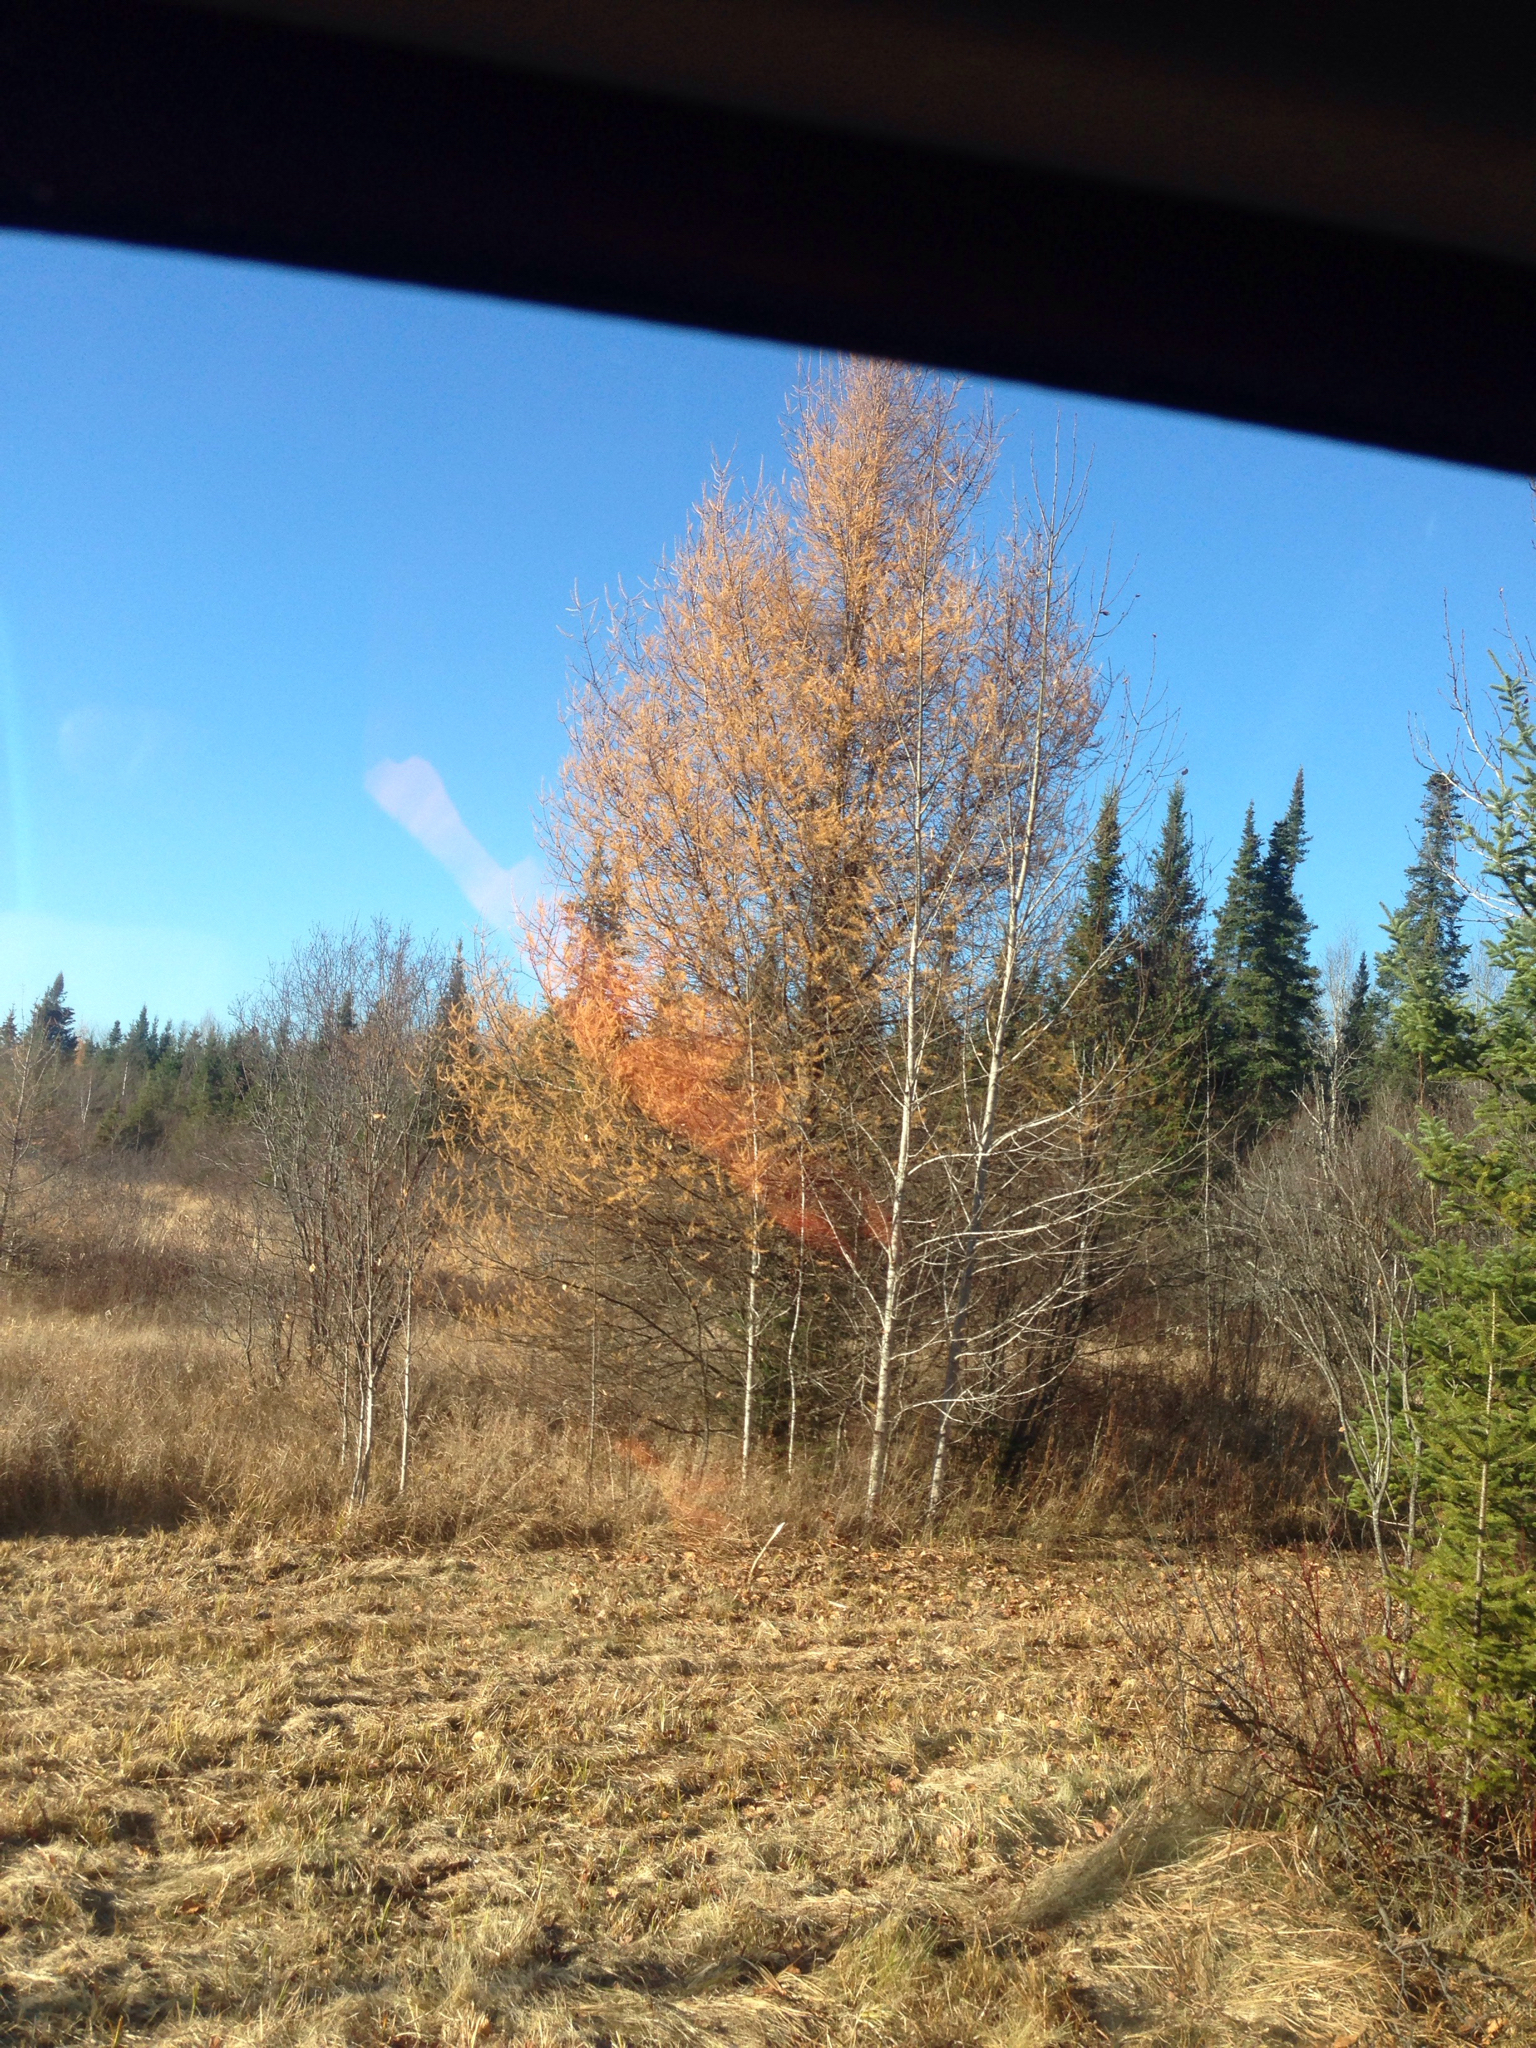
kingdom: Plantae
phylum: Tracheophyta
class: Pinopsida
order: Pinales
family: Pinaceae
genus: Larix
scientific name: Larix laricina
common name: American larch
